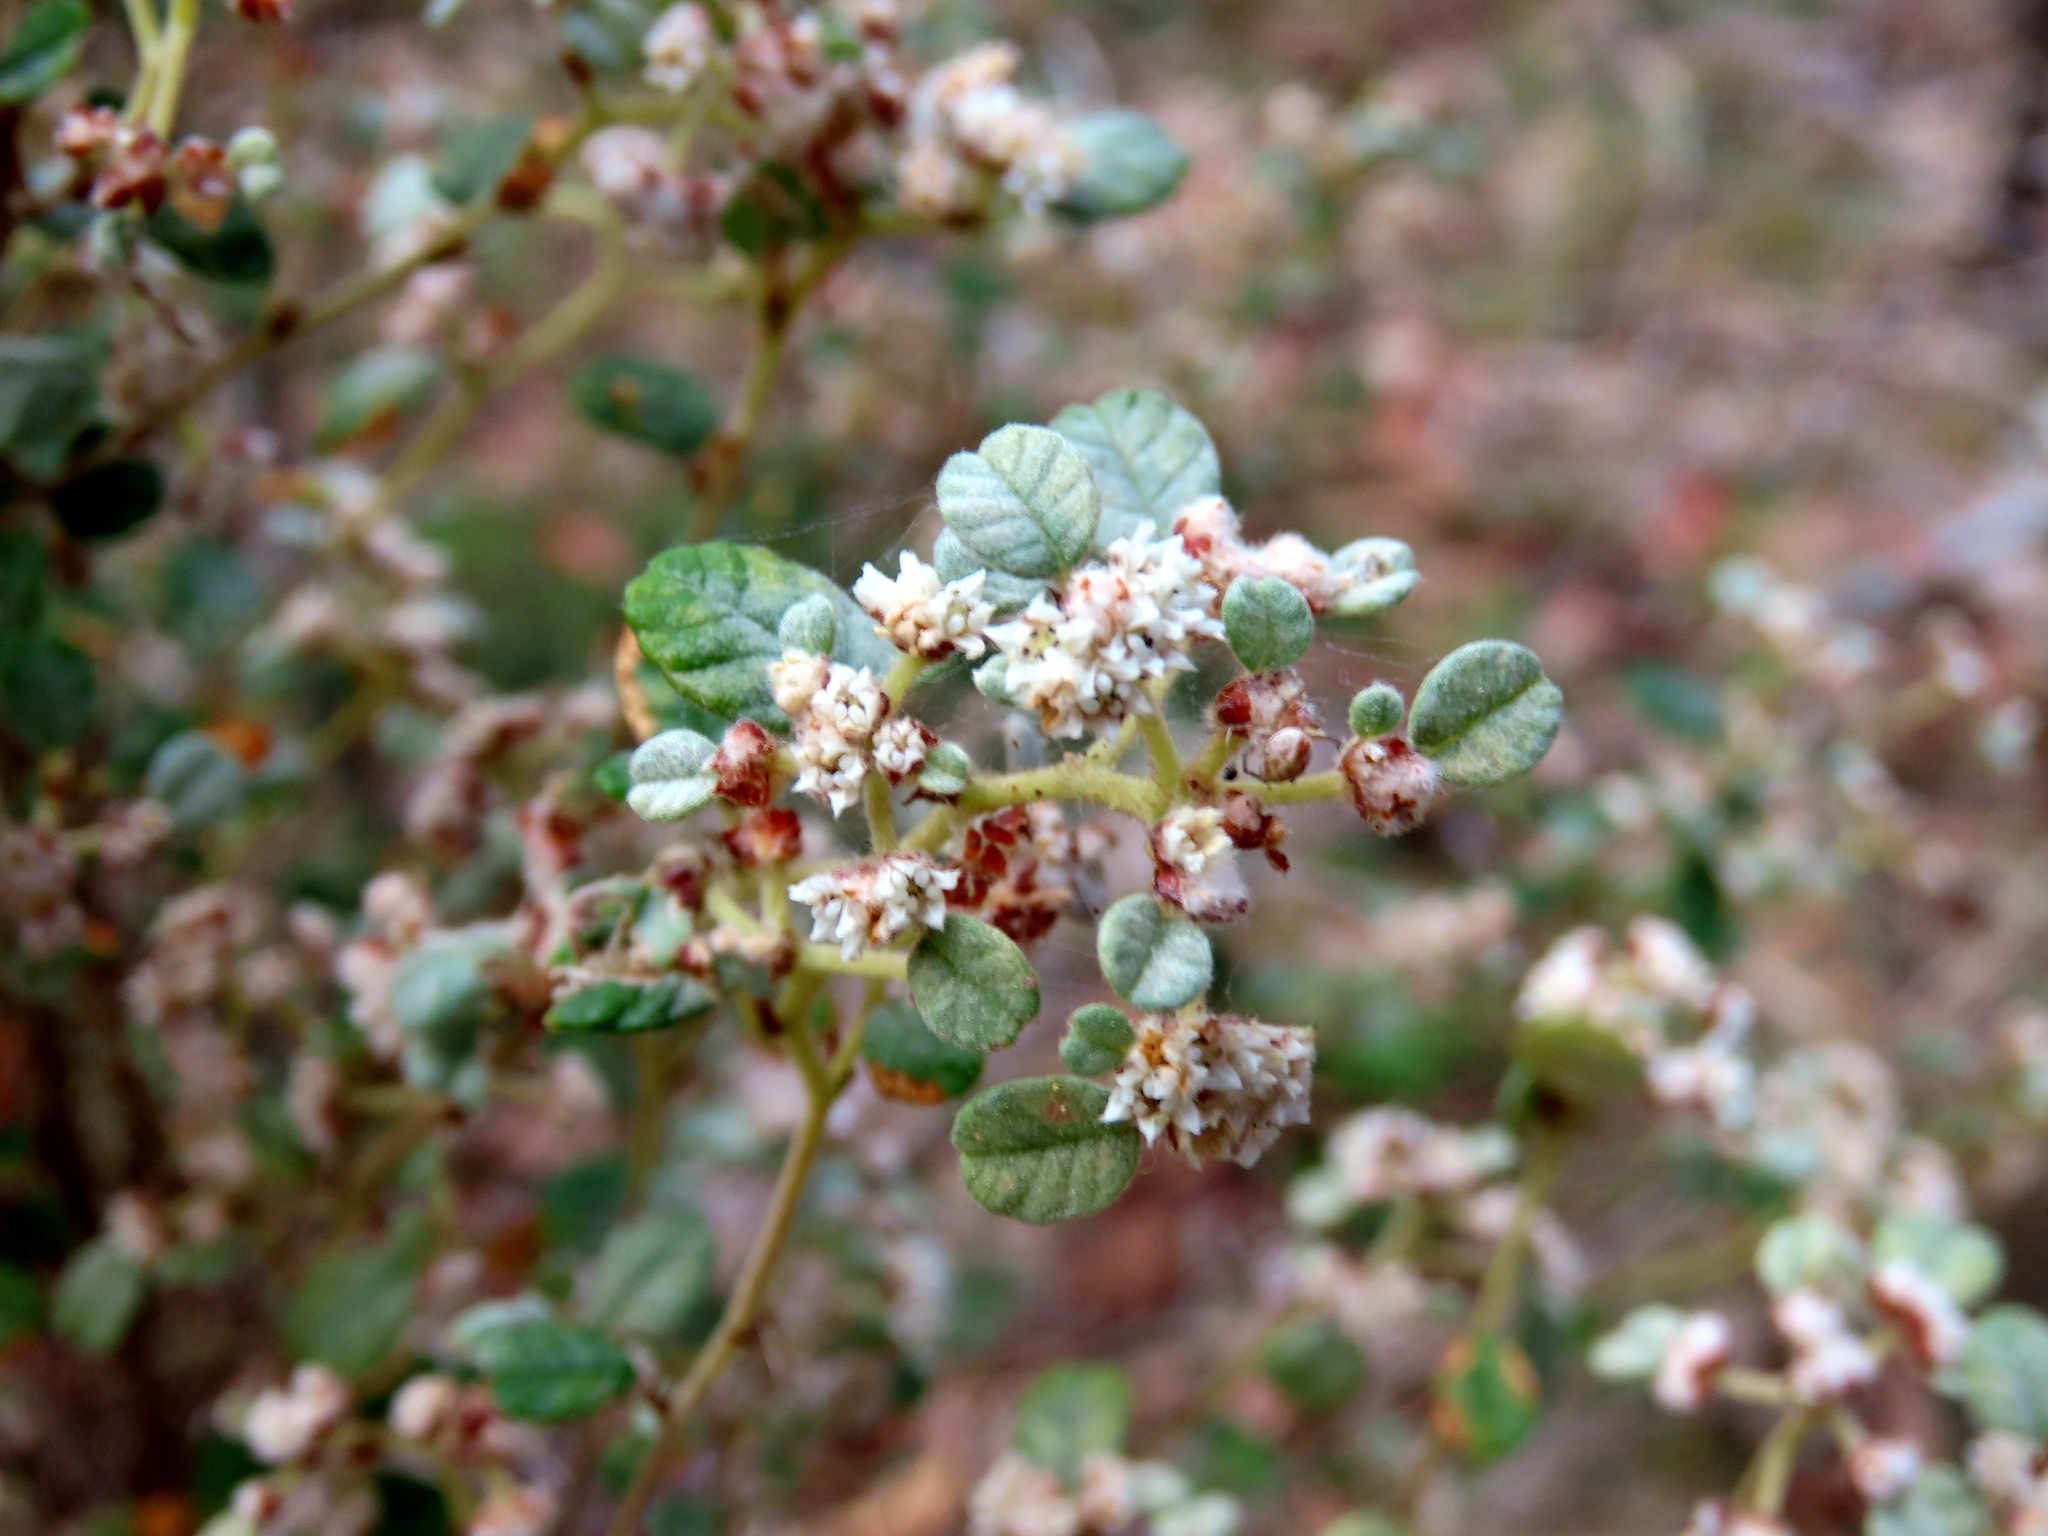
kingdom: Plantae
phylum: Tracheophyta
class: Magnoliopsida
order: Rosales
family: Rhamnaceae
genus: Spyridium
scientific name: Spyridium parvifolium
